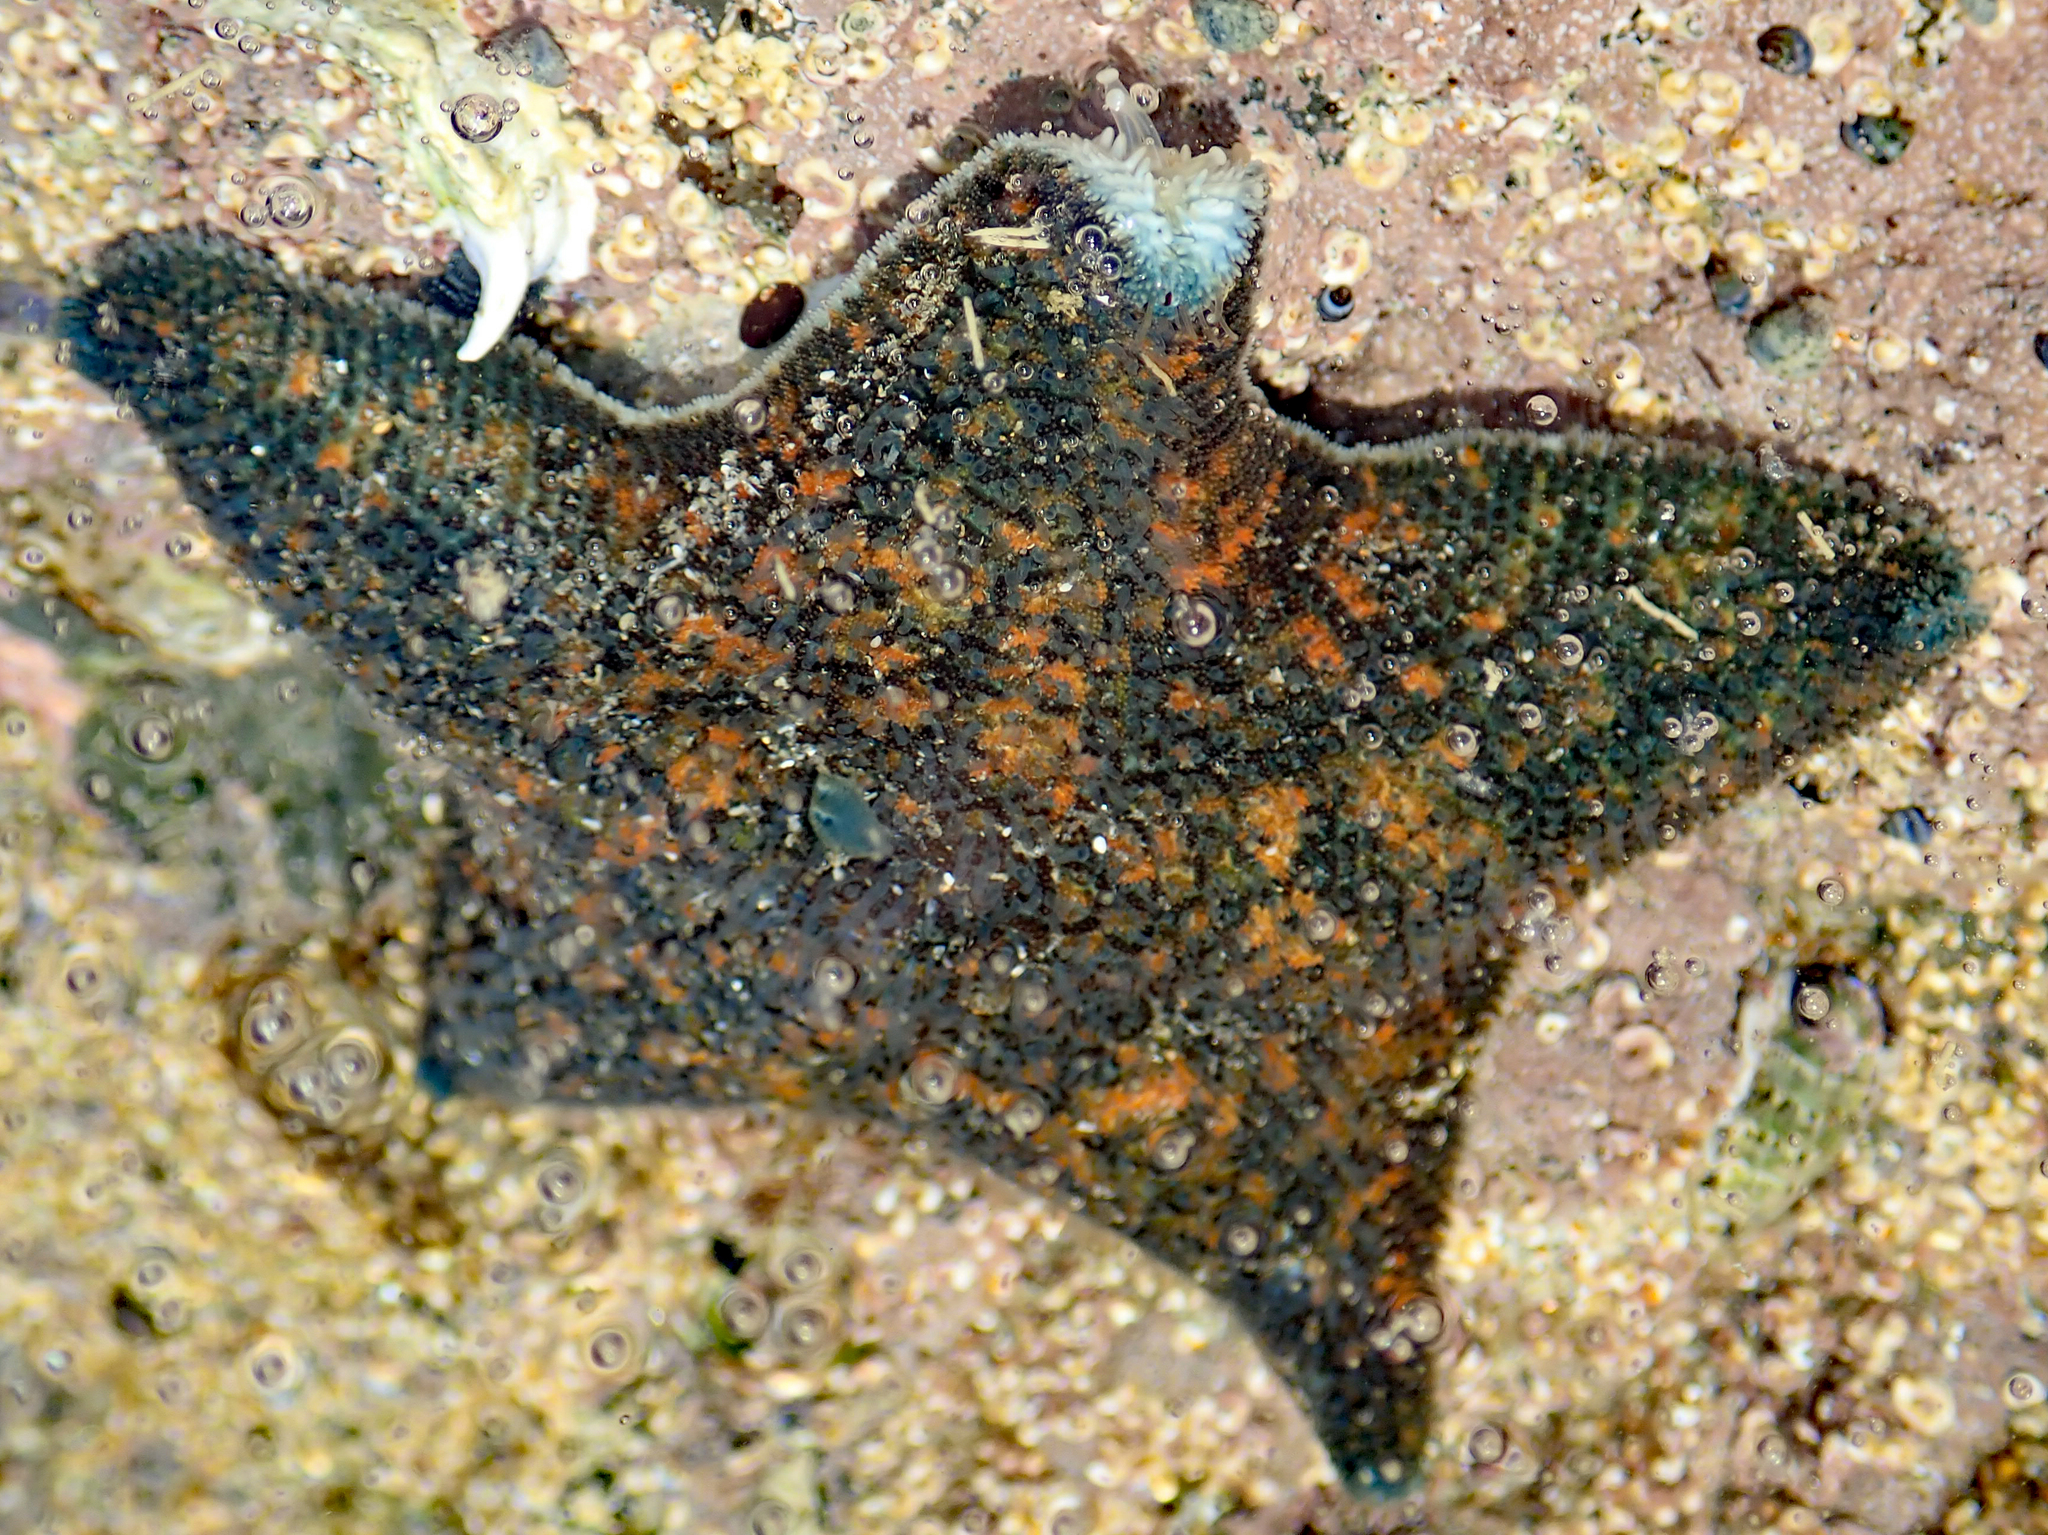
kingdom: Animalia
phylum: Echinodermata
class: Asteroidea
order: Valvatida
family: Asterinidae
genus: Patiriella
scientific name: Patiriella regularis
